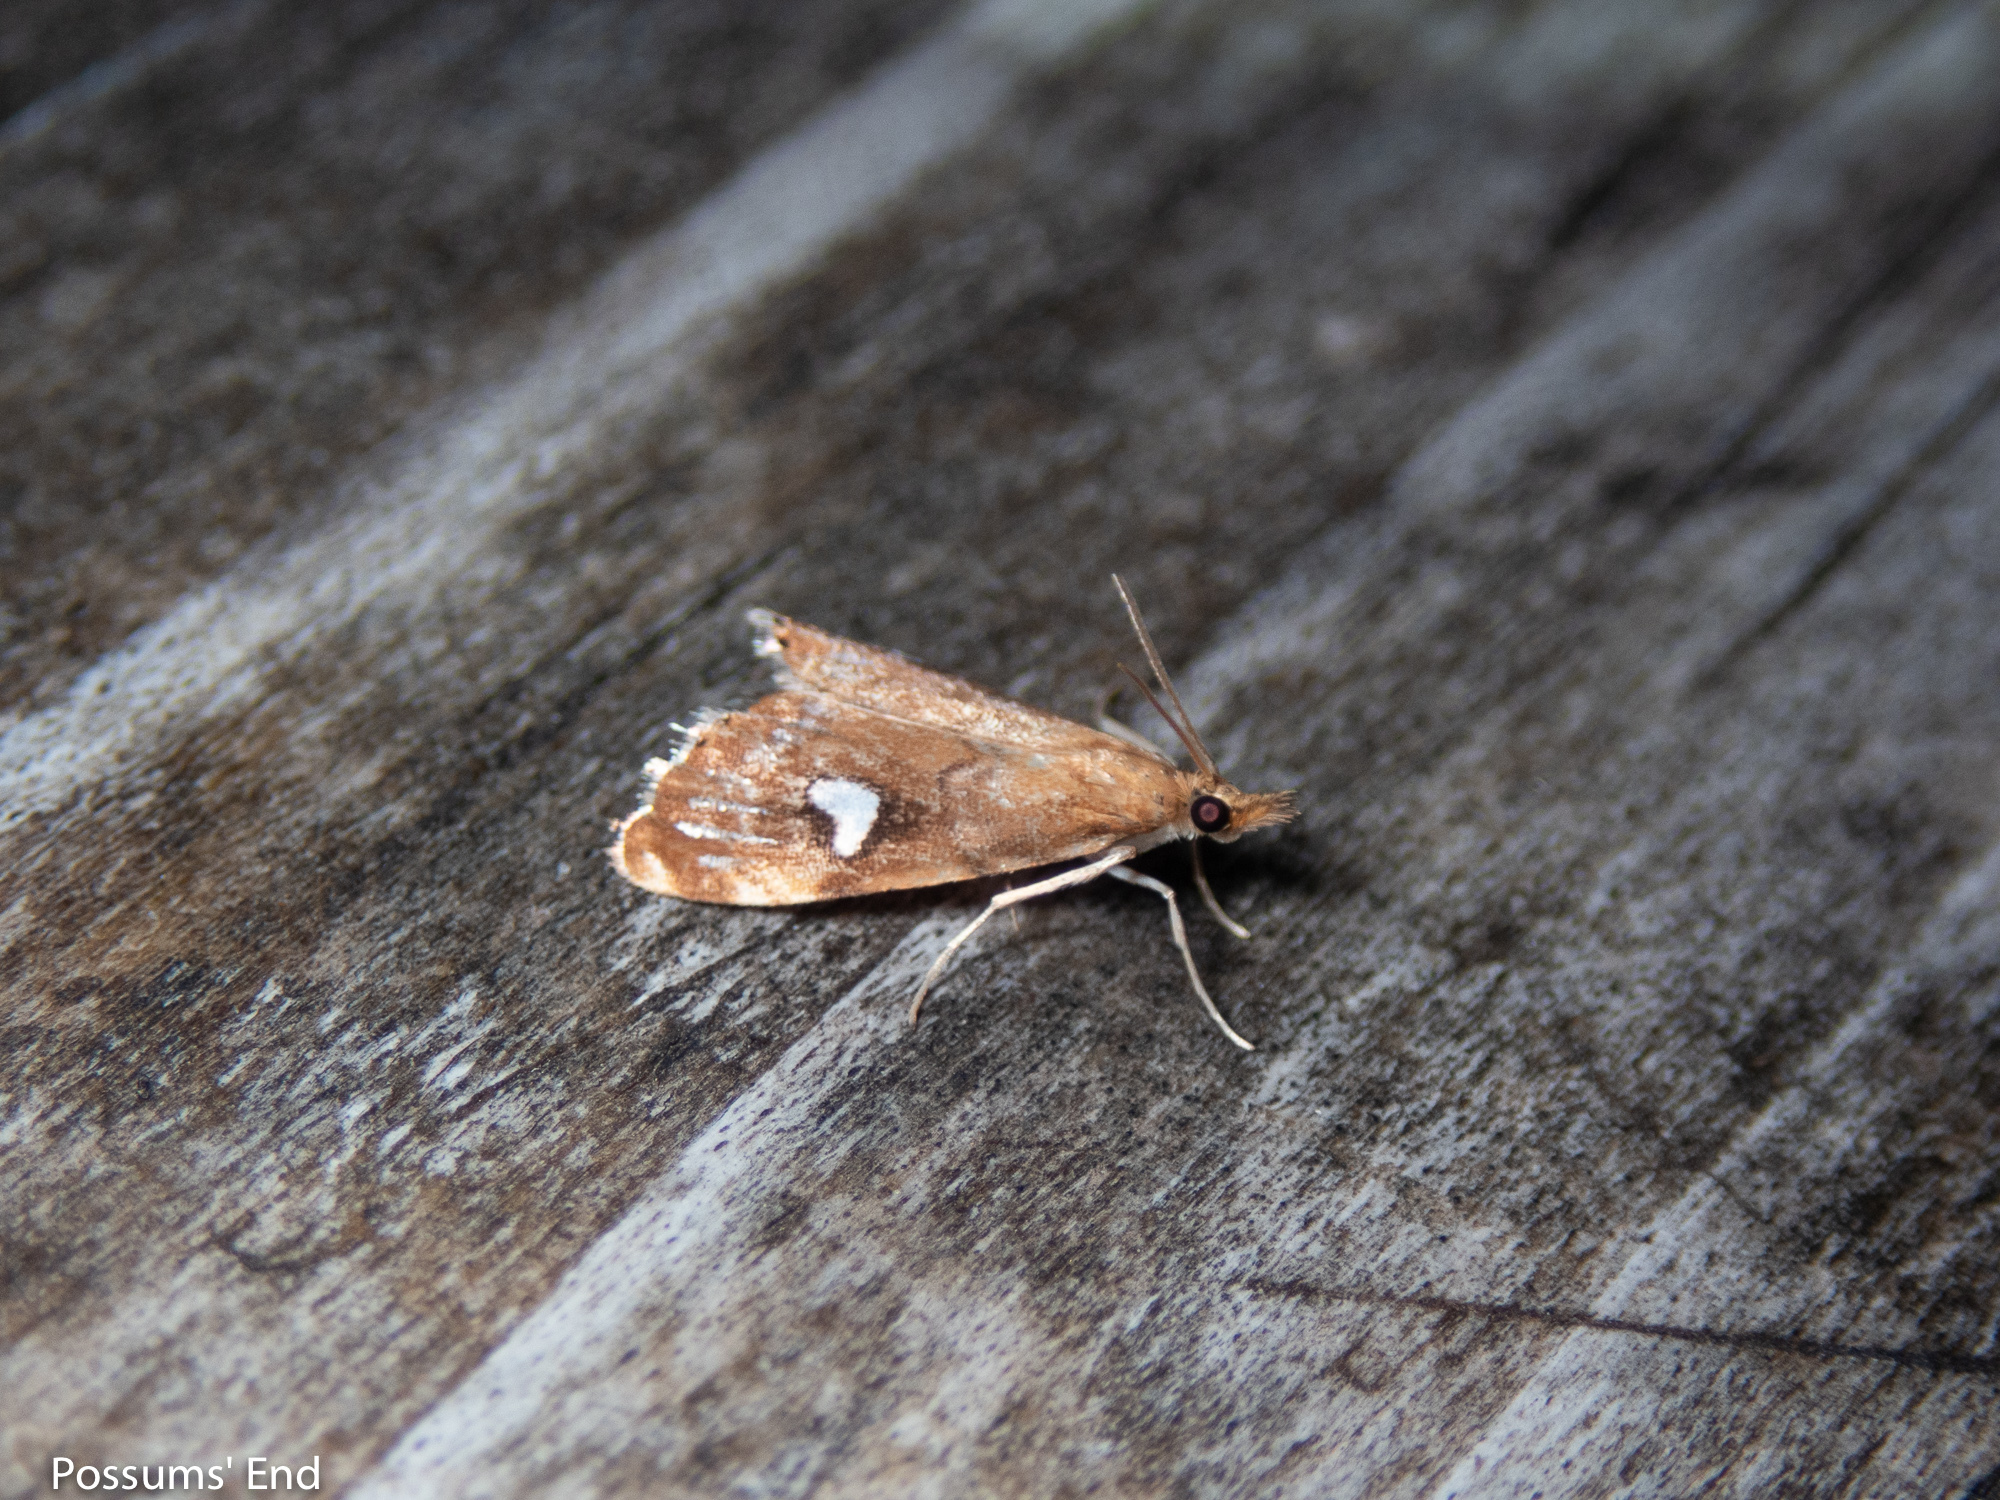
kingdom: Animalia
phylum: Arthropoda
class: Insecta
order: Lepidoptera
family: Crambidae
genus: Glaucocharis
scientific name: Glaucocharis leucoxantha
